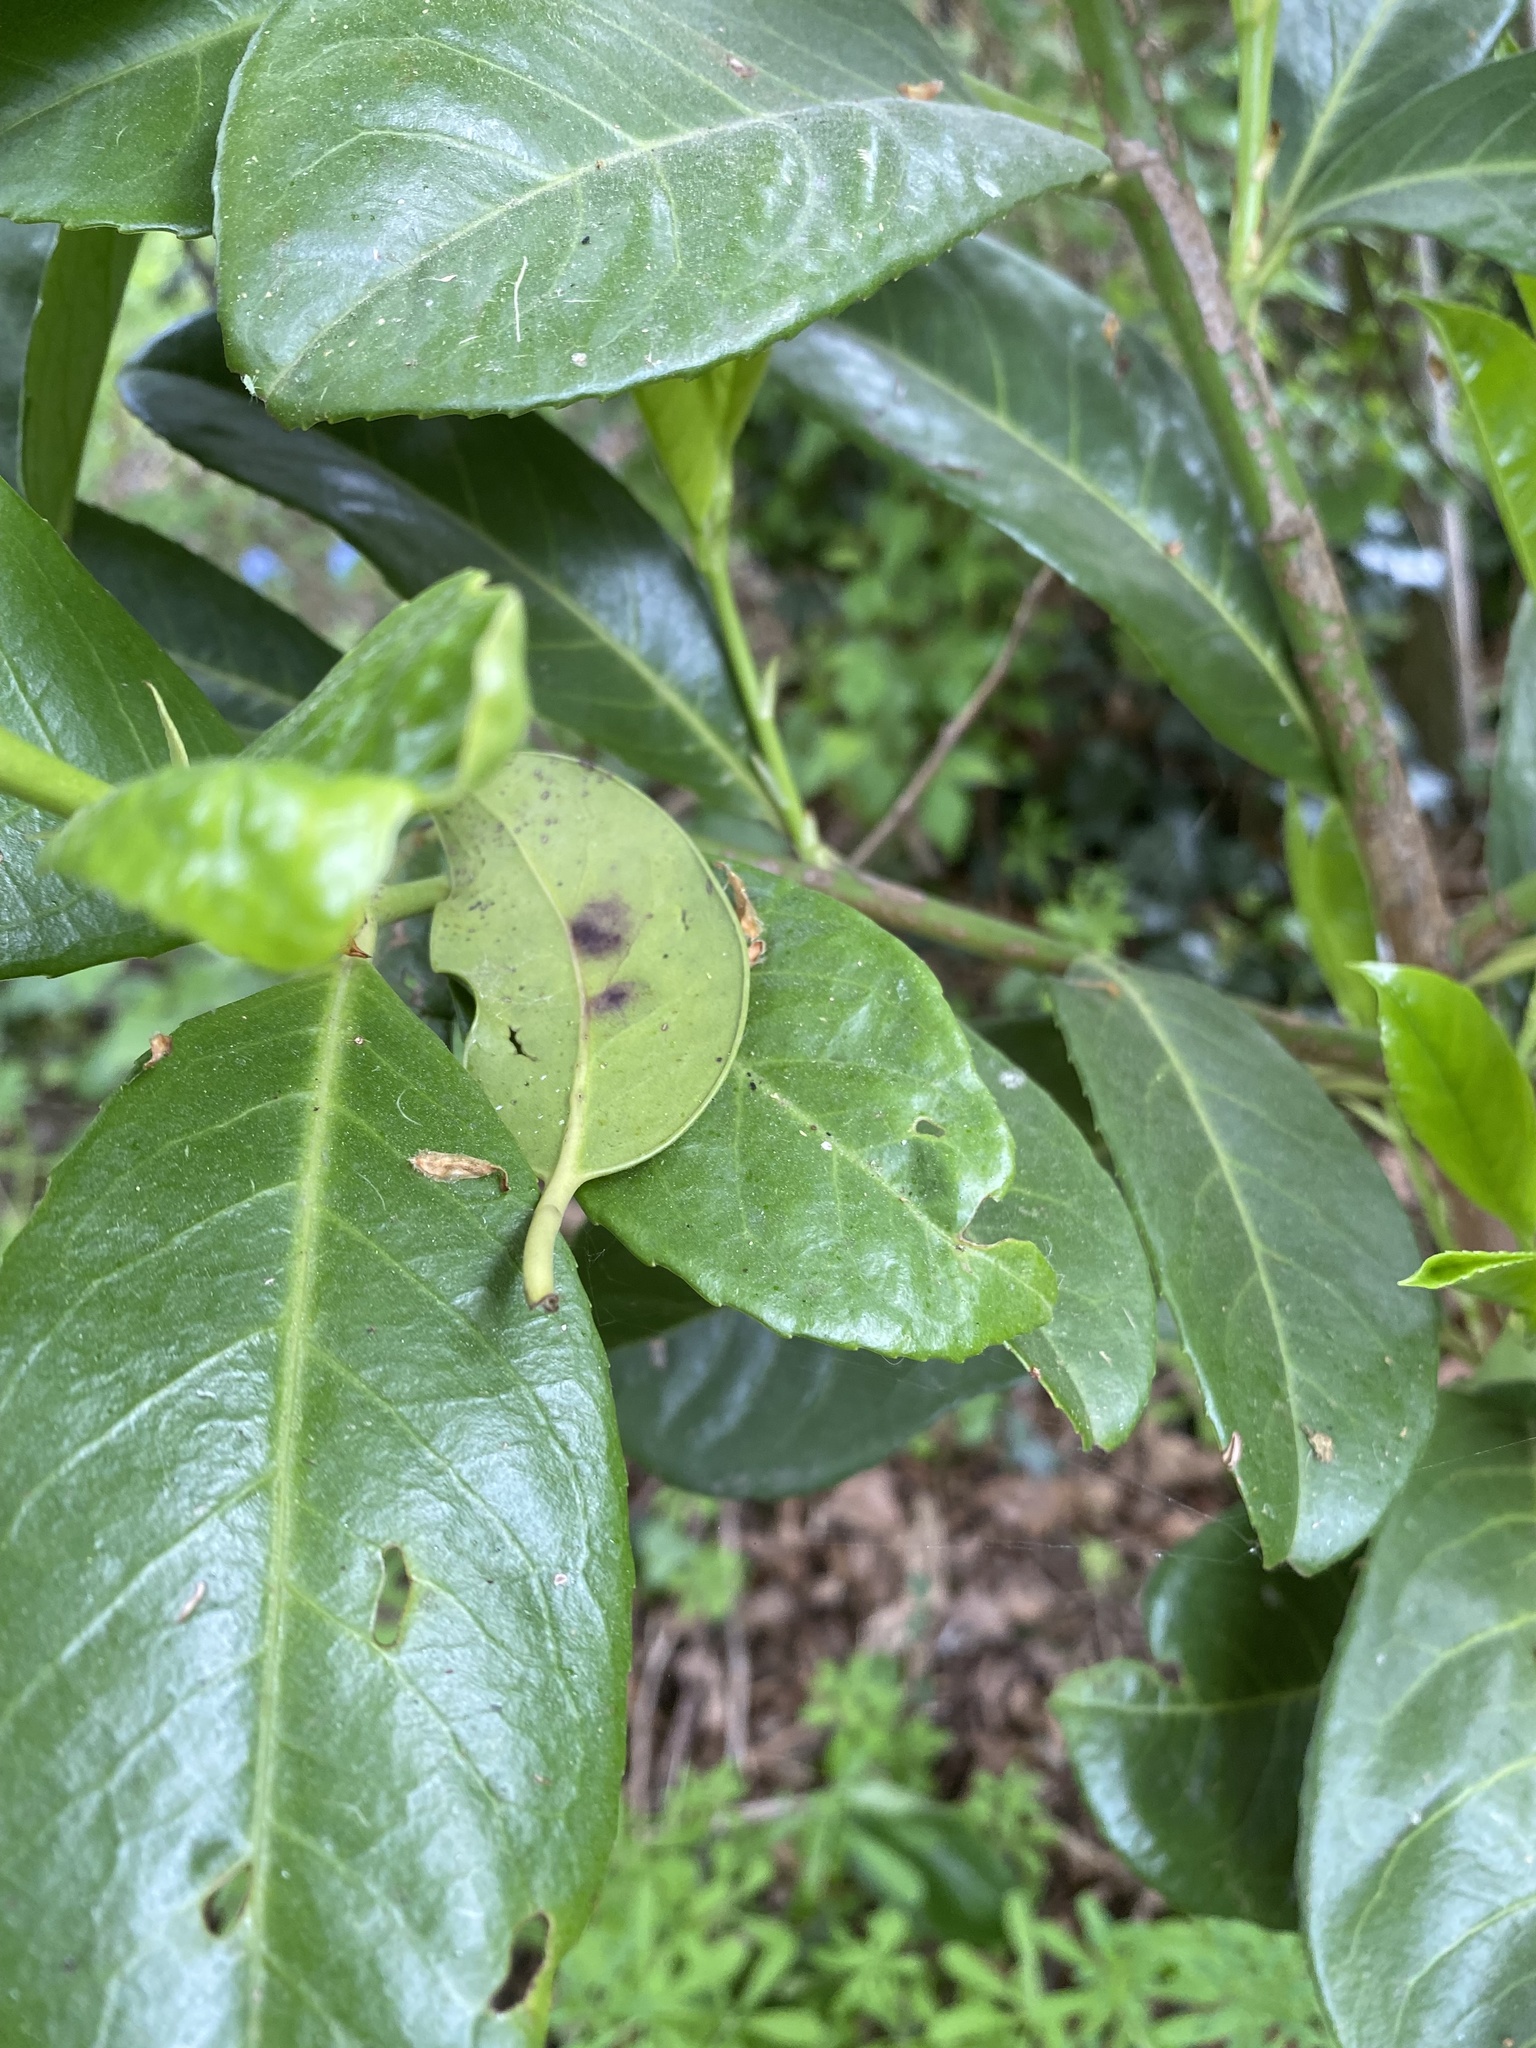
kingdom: Plantae
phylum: Tracheophyta
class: Magnoliopsida
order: Rosales
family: Rosaceae
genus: Prunus
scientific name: Prunus laurocerasus
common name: Cherry laurel
